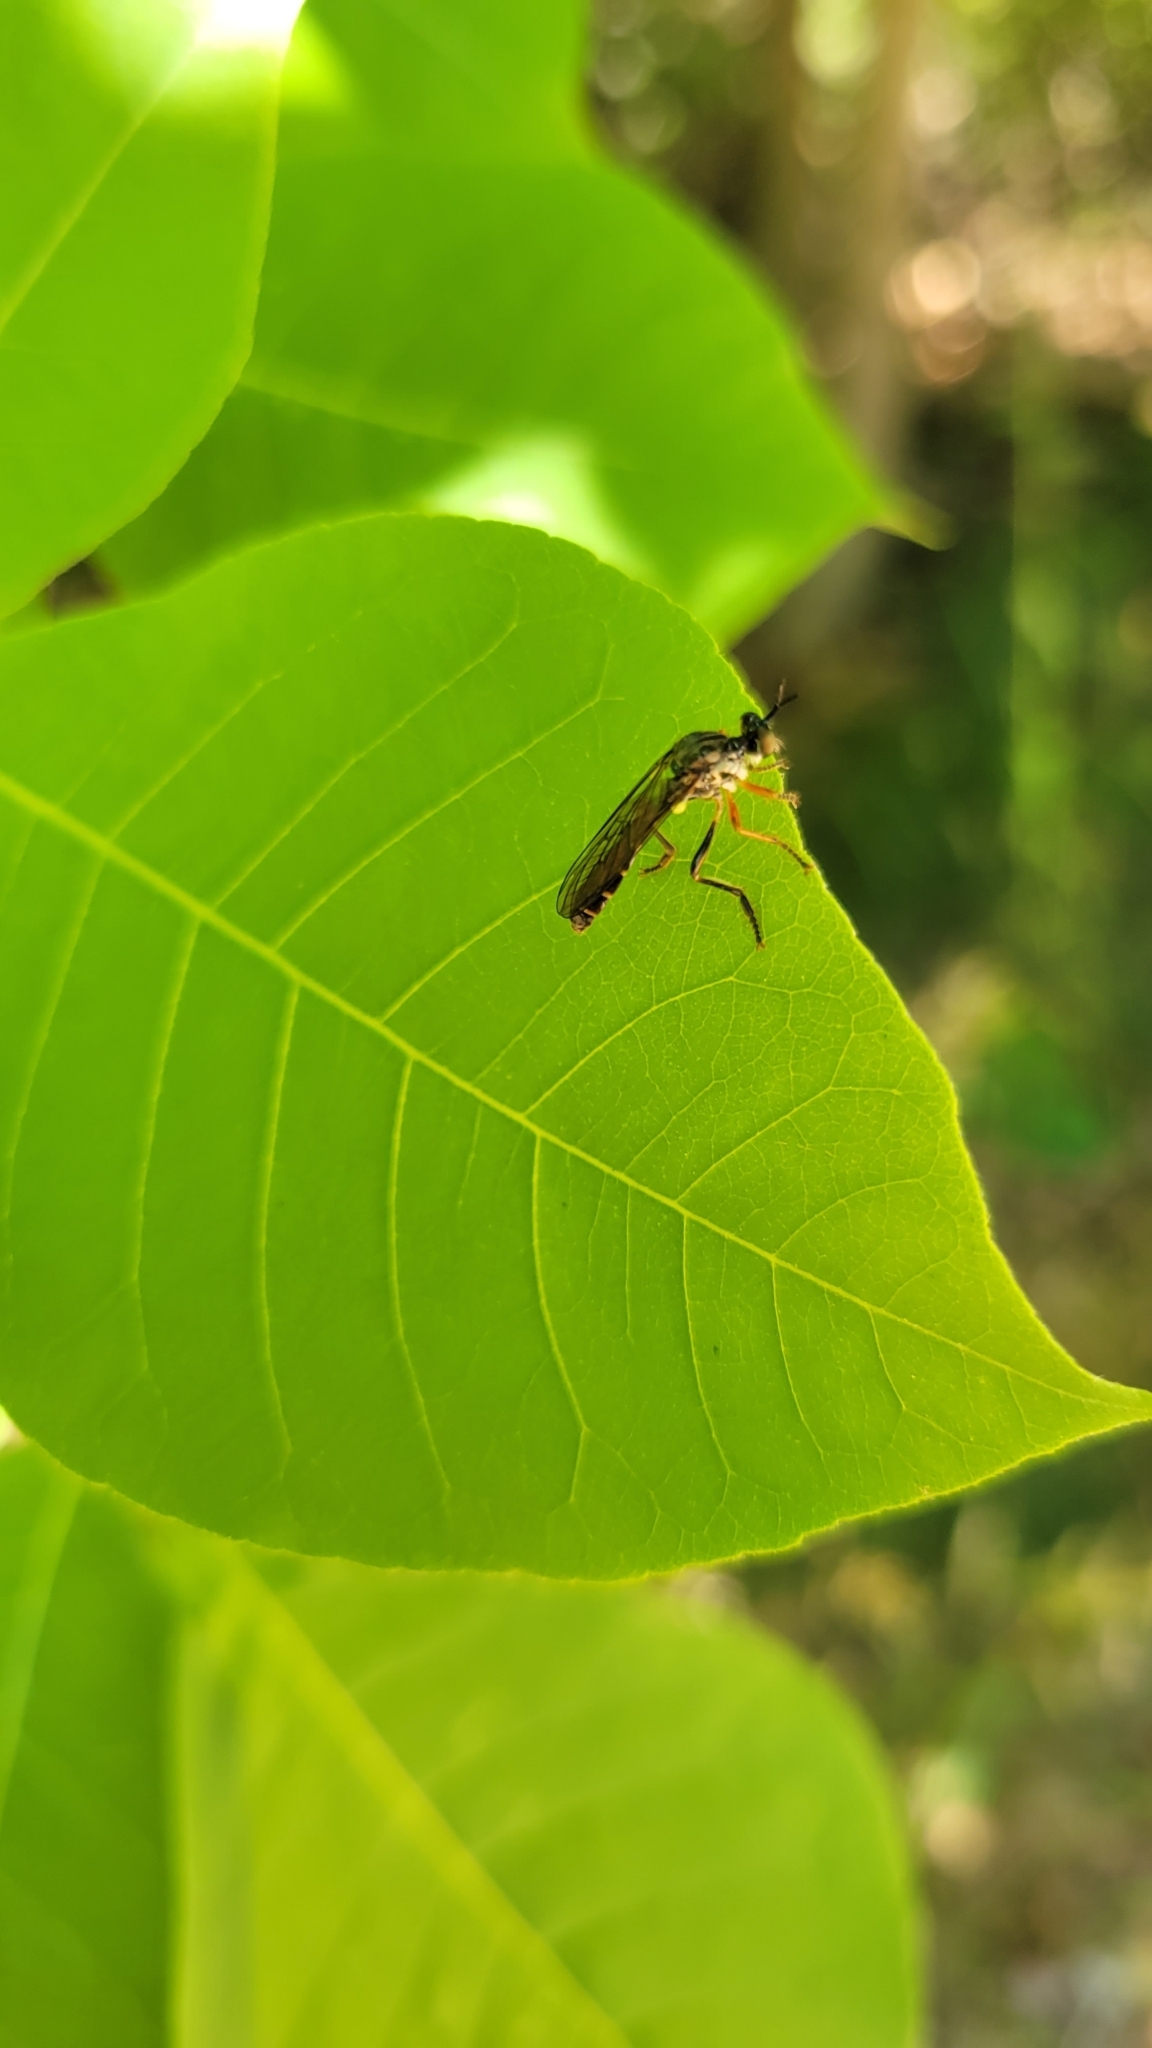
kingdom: Animalia
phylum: Arthropoda
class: Insecta
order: Diptera
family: Asilidae
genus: Dioctria
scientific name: Dioctria hyalipennis
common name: Stripe-legged robberfly
